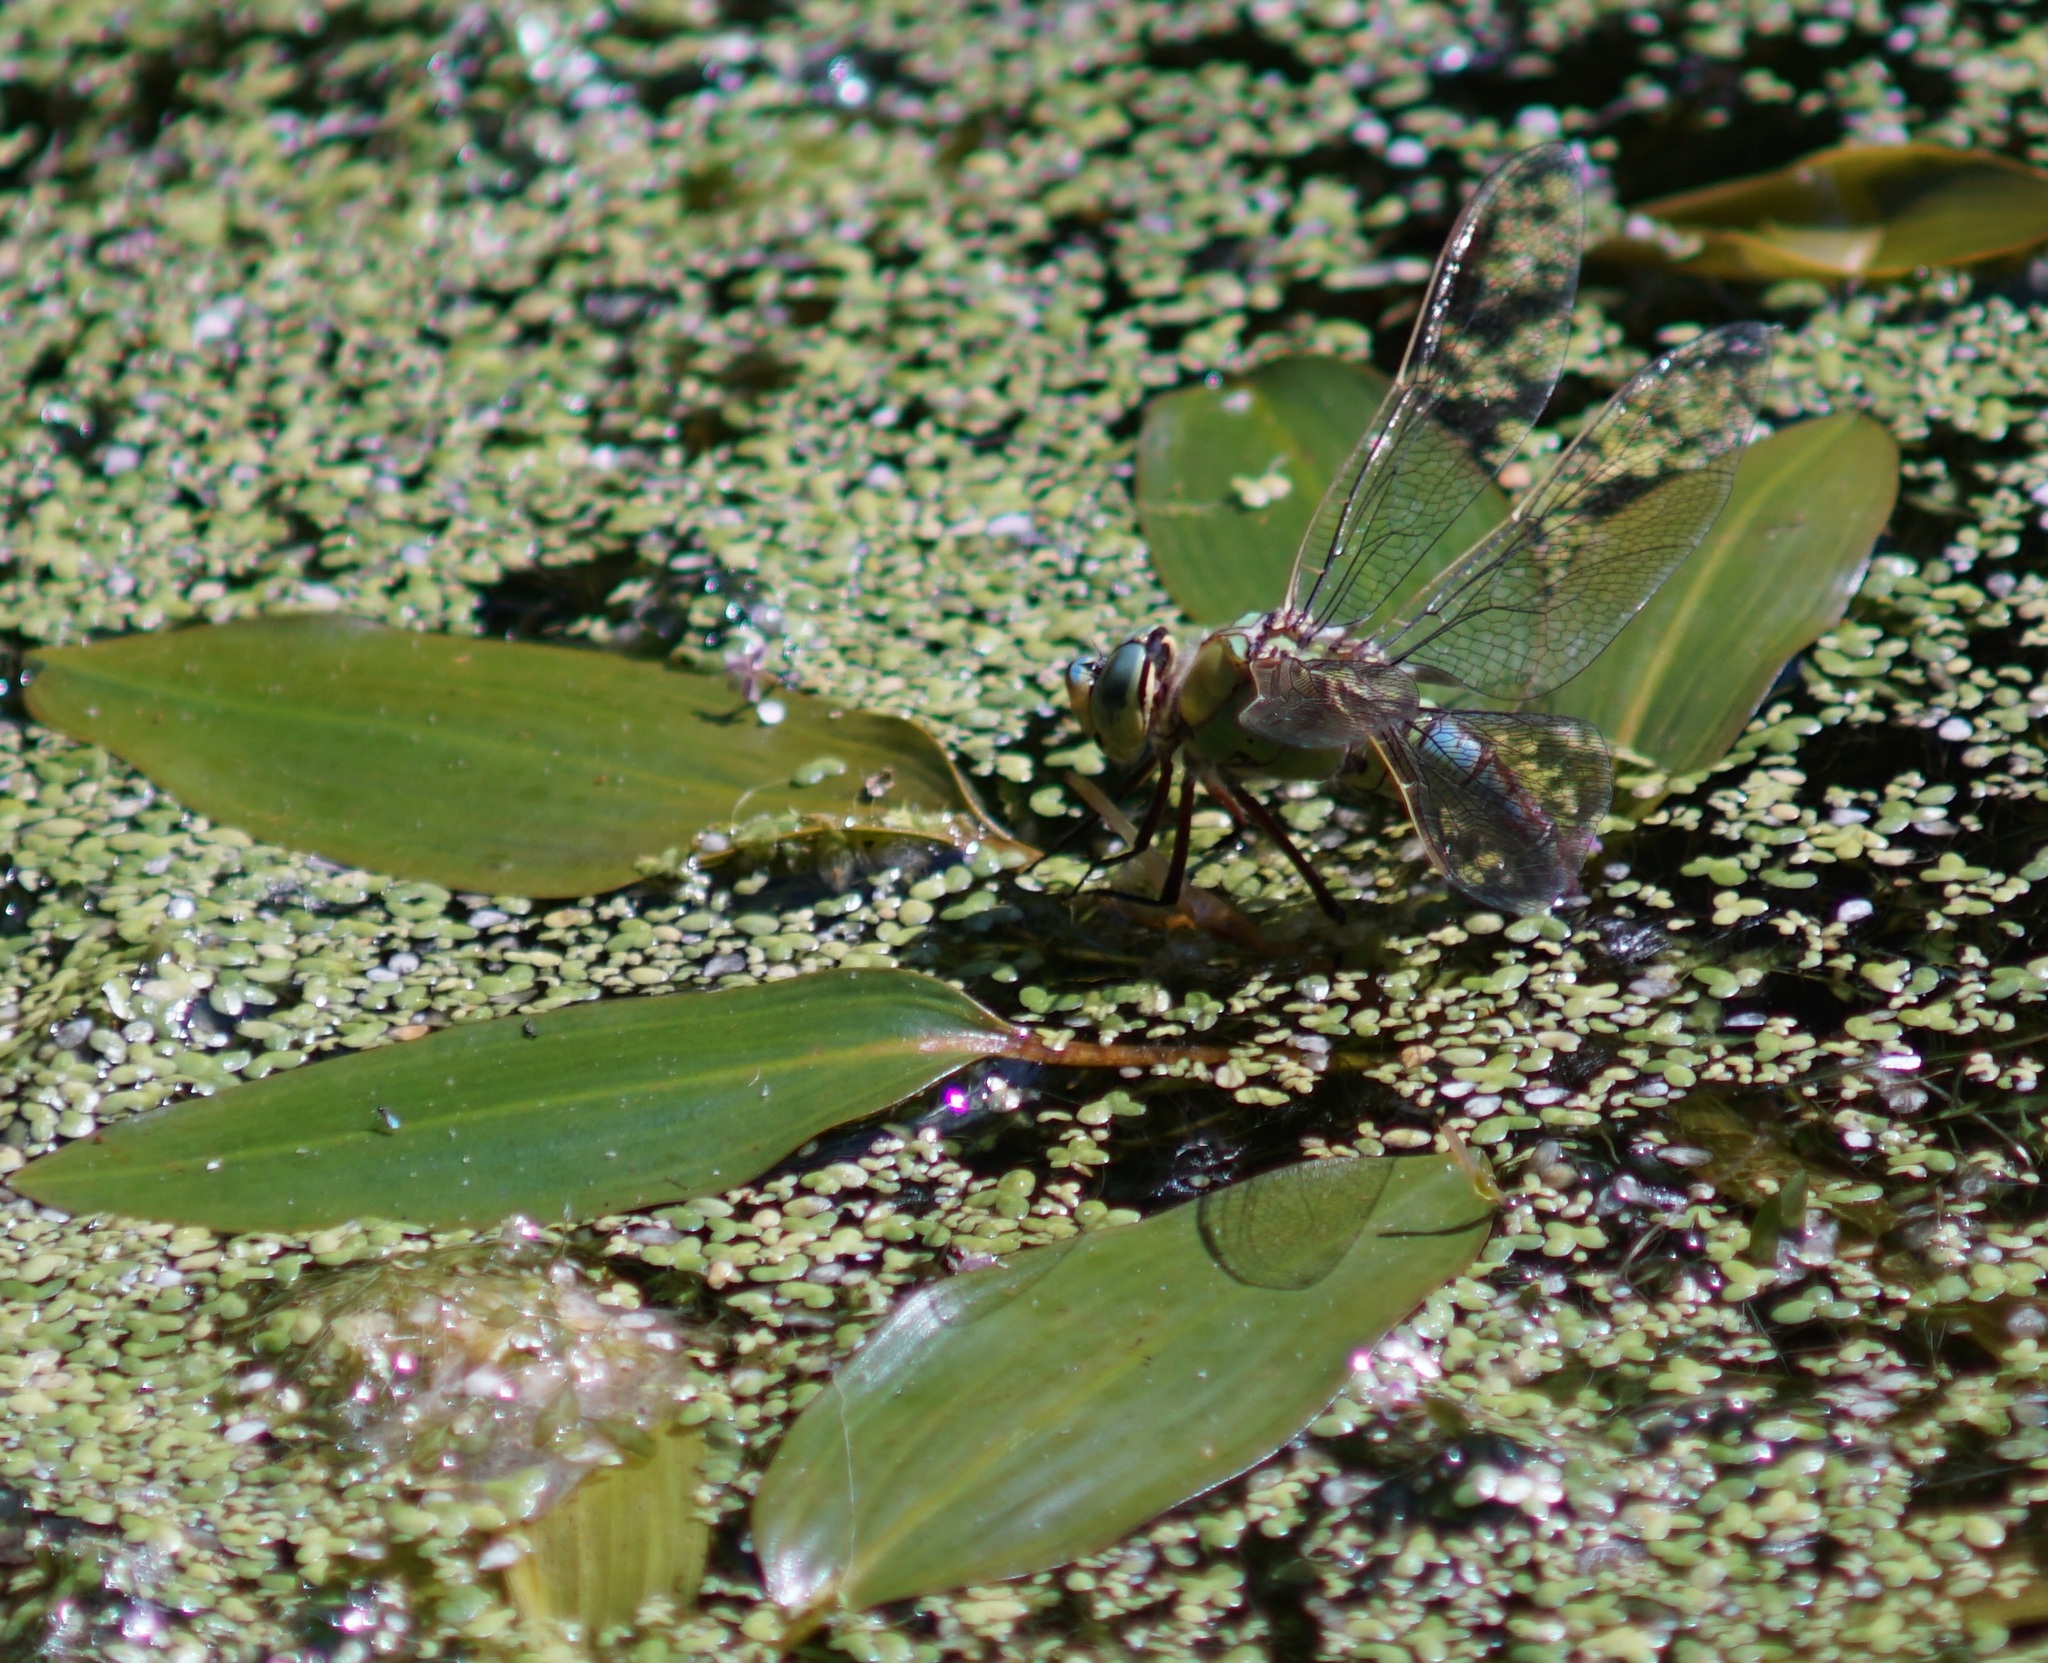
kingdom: Animalia
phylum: Arthropoda
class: Insecta
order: Odonata
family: Aeshnidae
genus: Anax
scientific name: Anax imperator
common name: Emperor dragonfly
